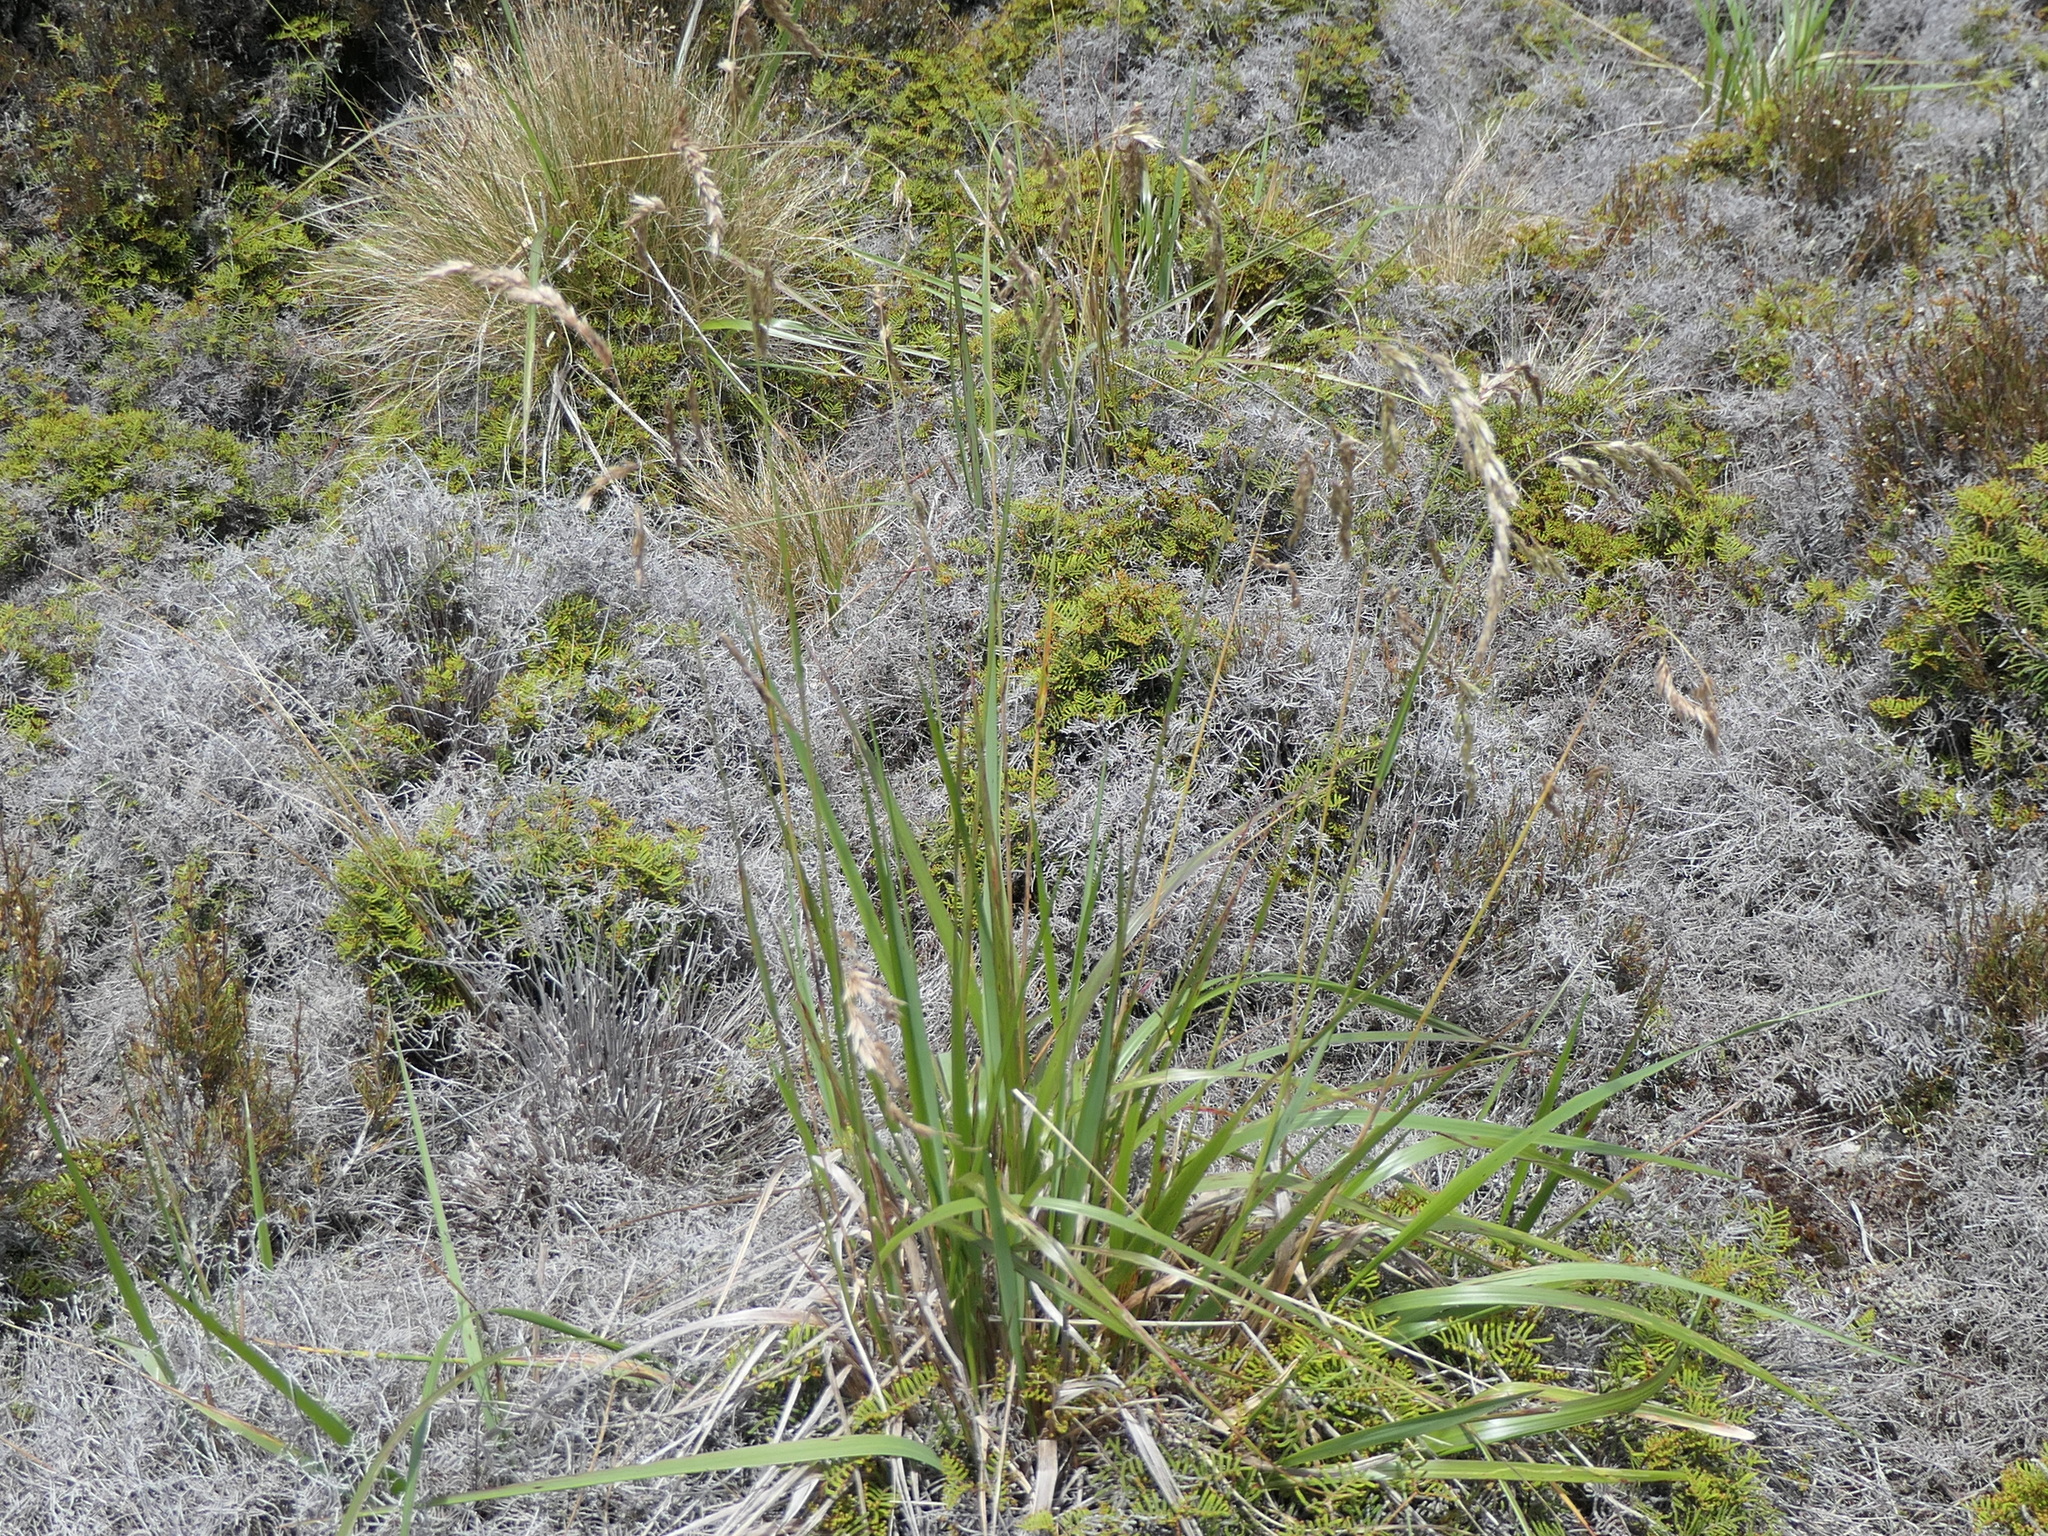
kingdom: Plantae
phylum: Tracheophyta
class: Liliopsida
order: Poales
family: Poaceae
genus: Anthoxanthum
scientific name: Anthoxanthum redolens
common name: Sweet holy grass
